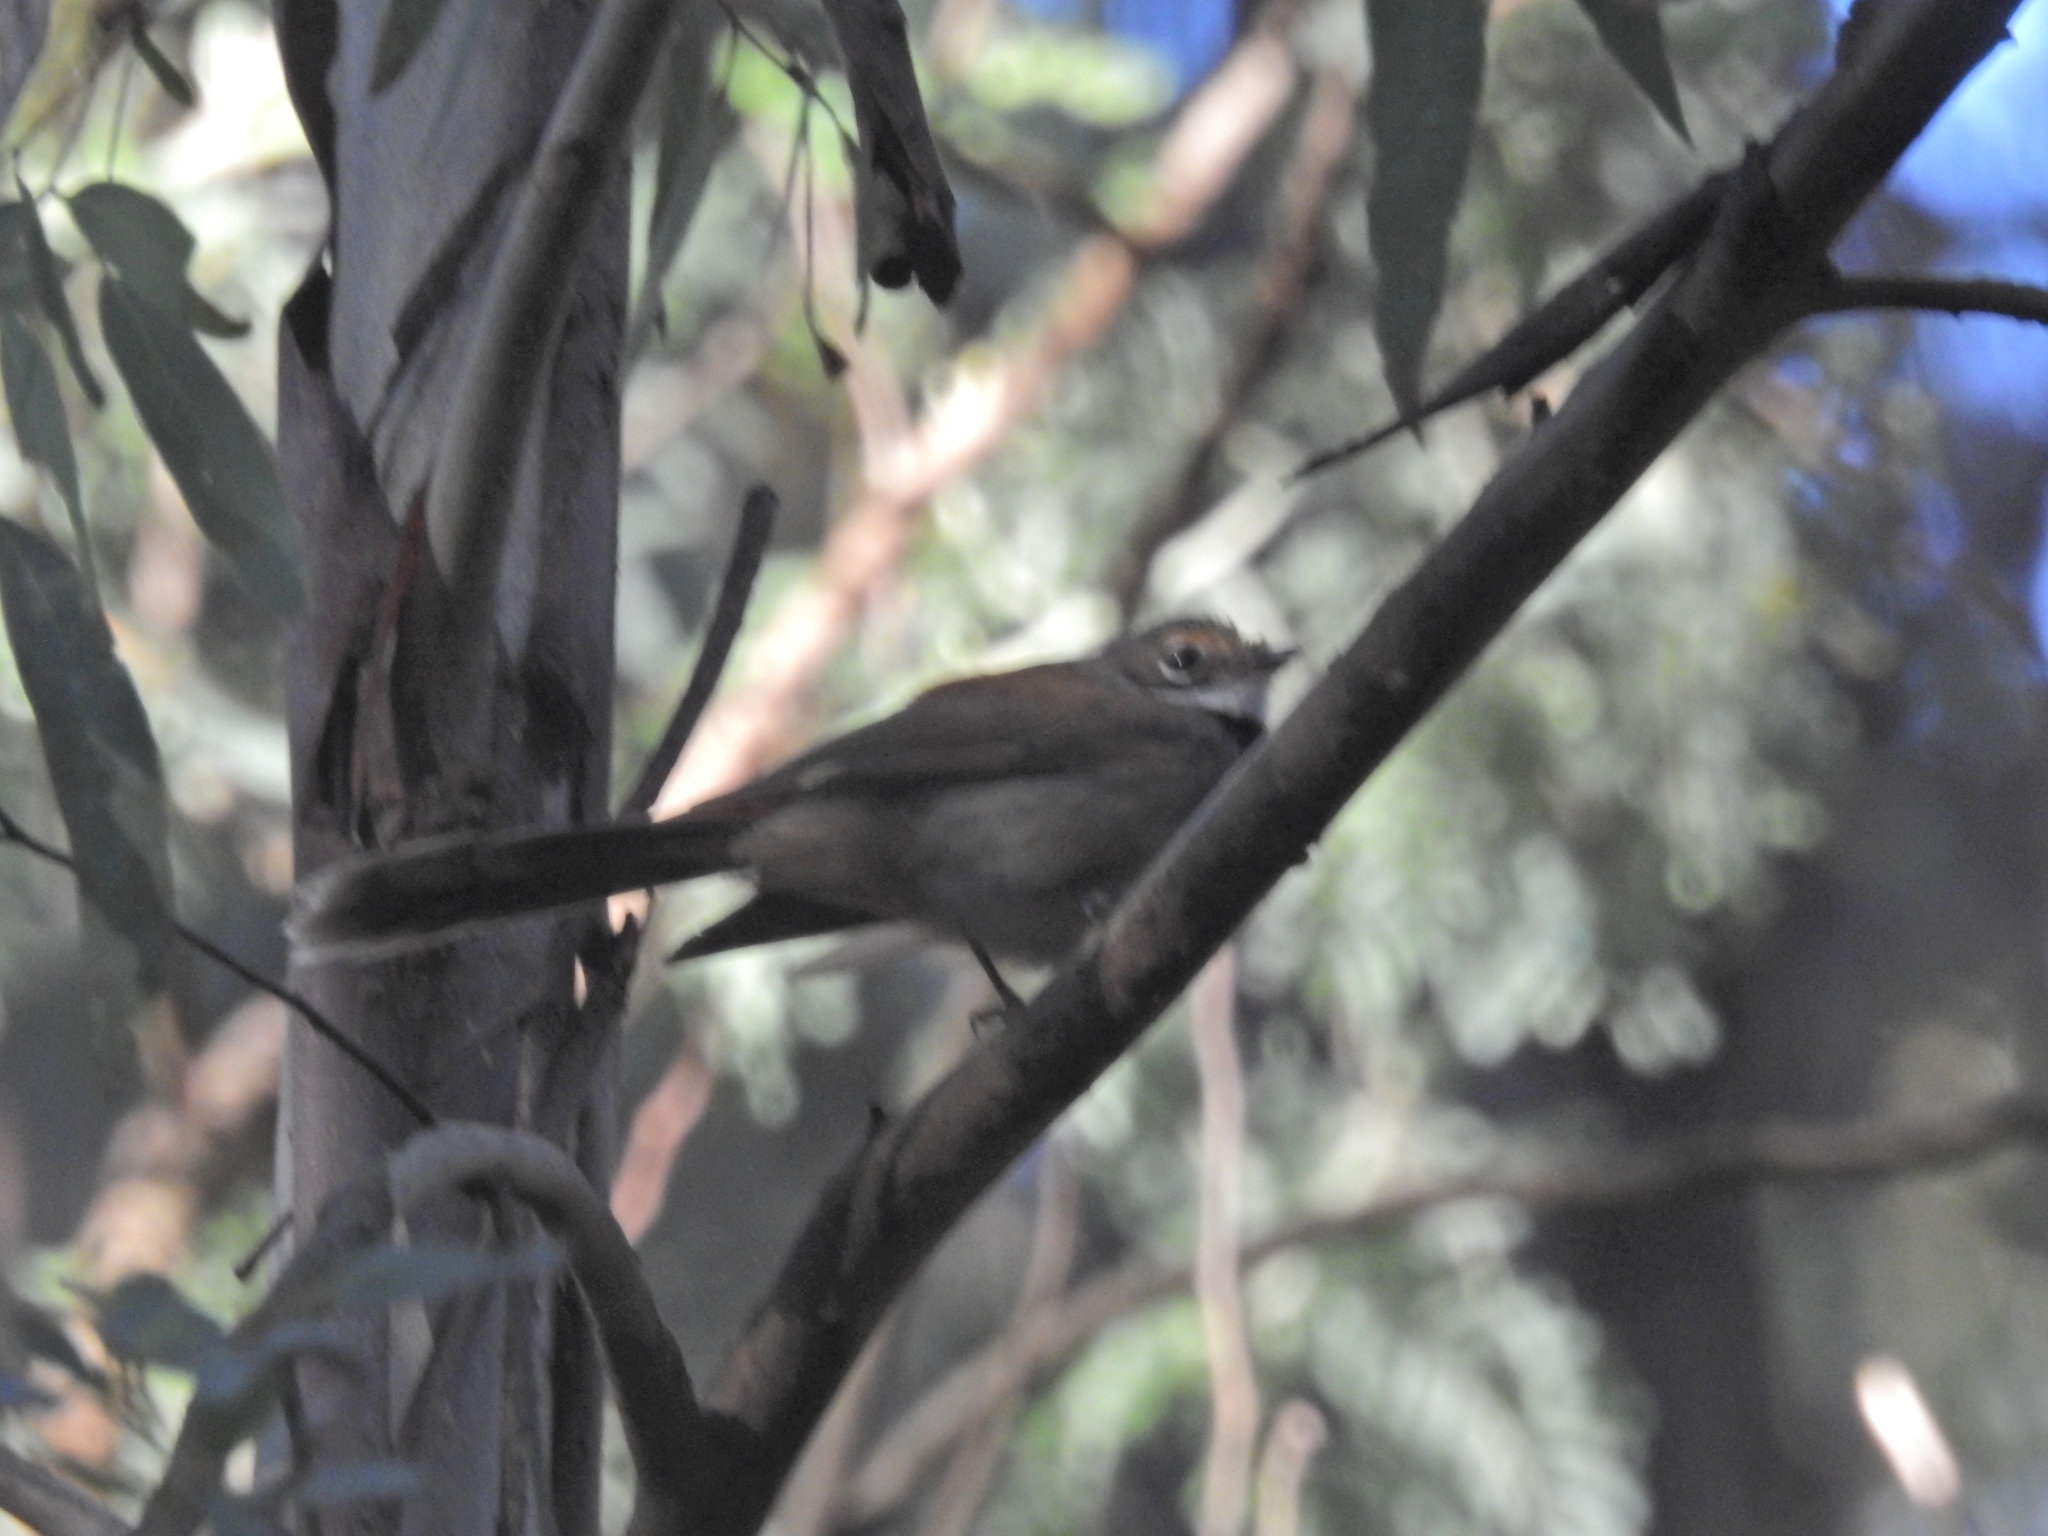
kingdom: Animalia
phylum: Chordata
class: Aves
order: Passeriformes
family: Rhipiduridae
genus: Rhipidura
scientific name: Rhipidura rufifrons
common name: Rufous fantail
